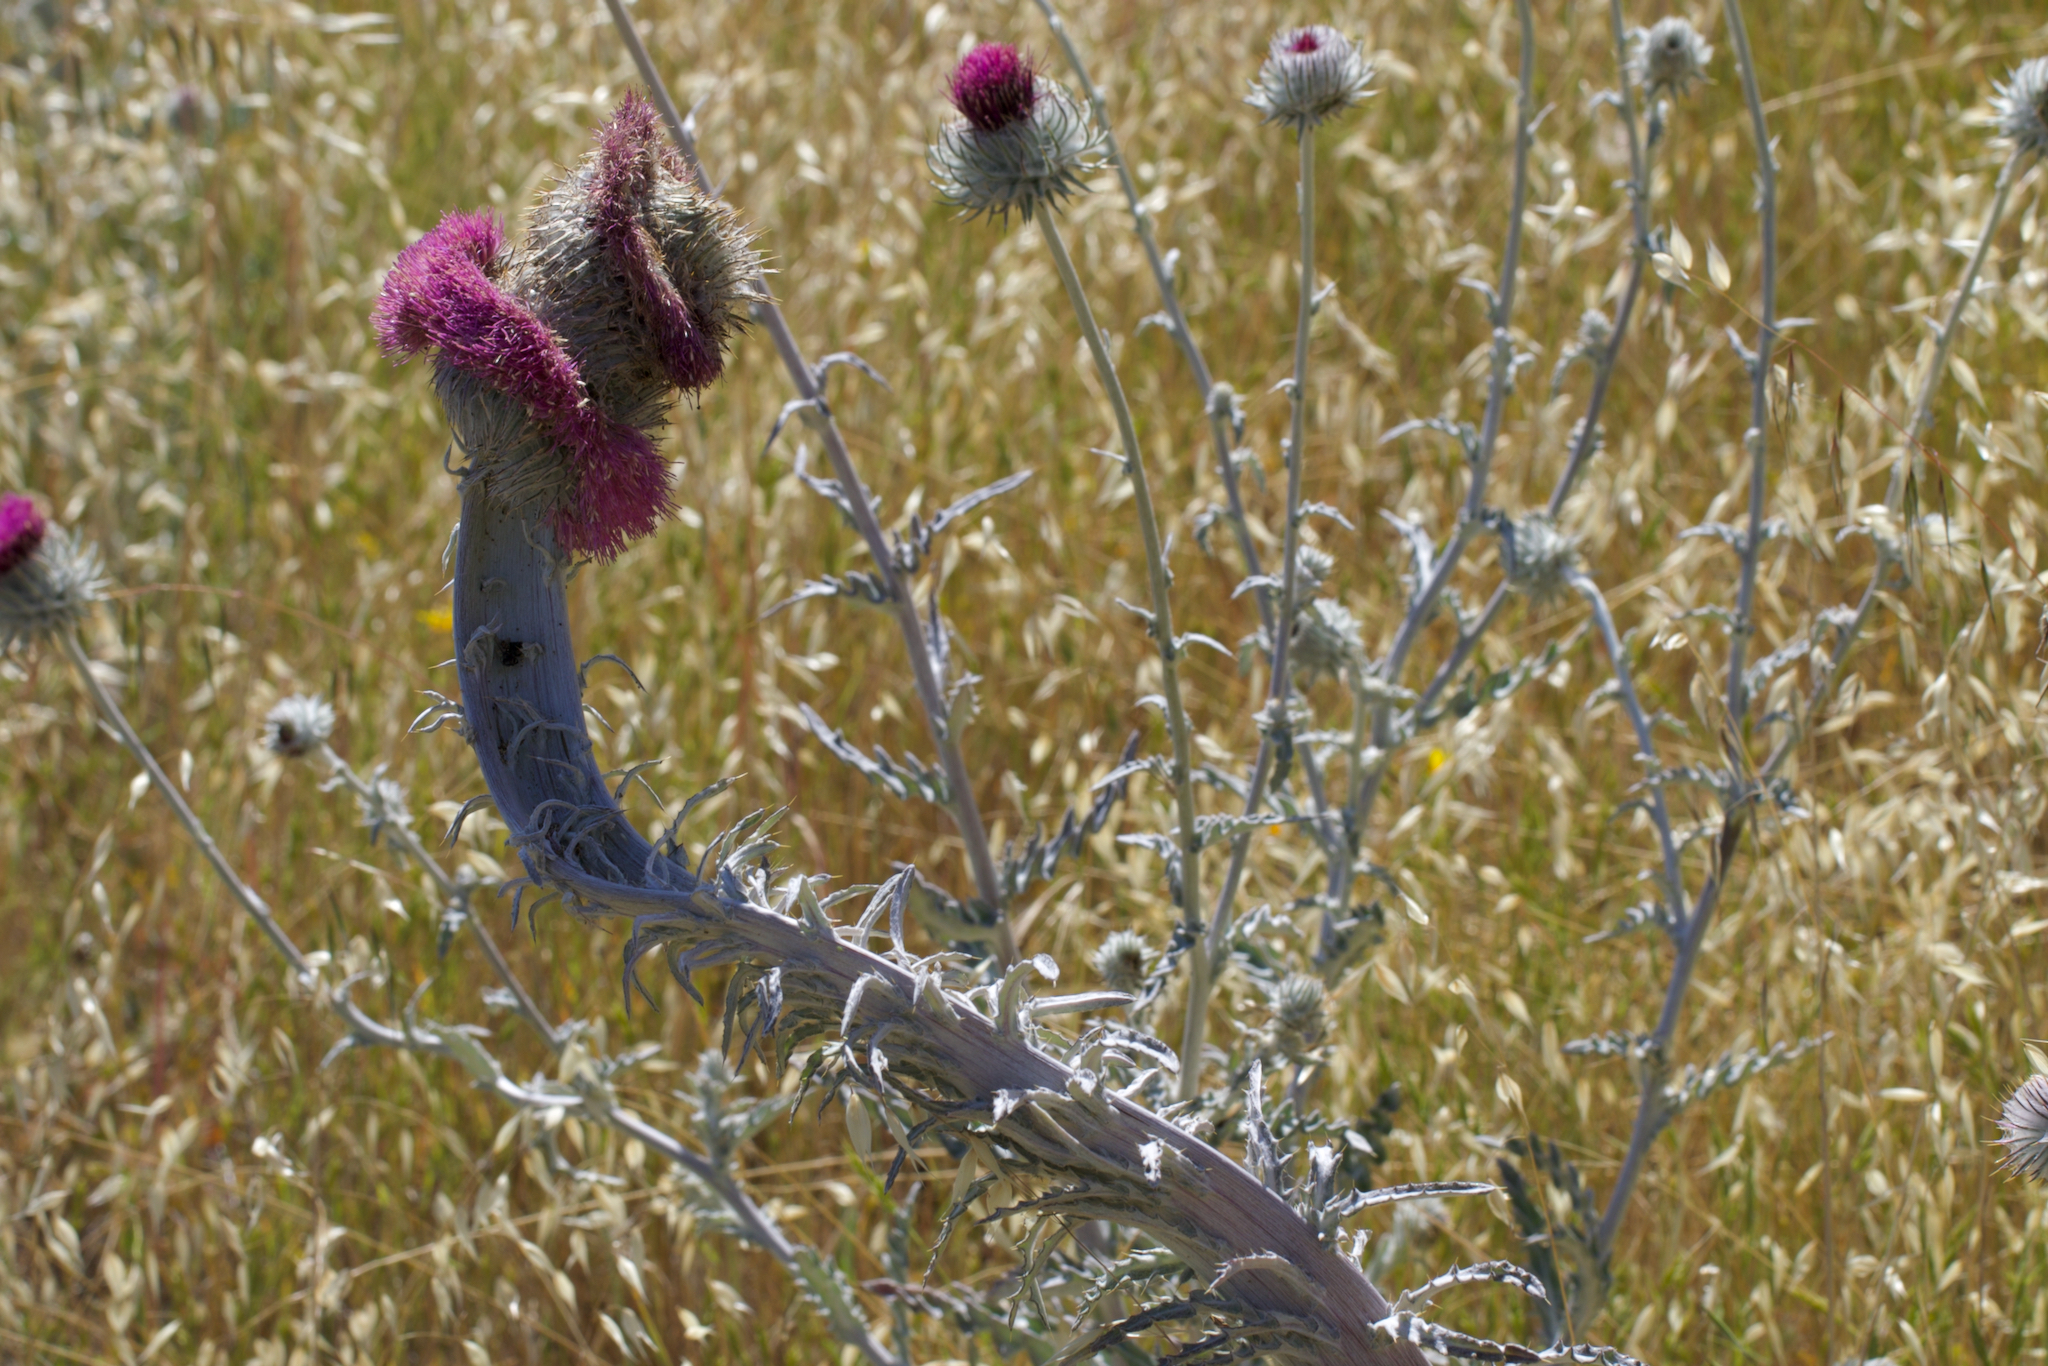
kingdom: Plantae
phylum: Tracheophyta
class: Magnoliopsida
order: Asterales
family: Asteraceae
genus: Cirsium
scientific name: Cirsium occidentale
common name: Western thistle
